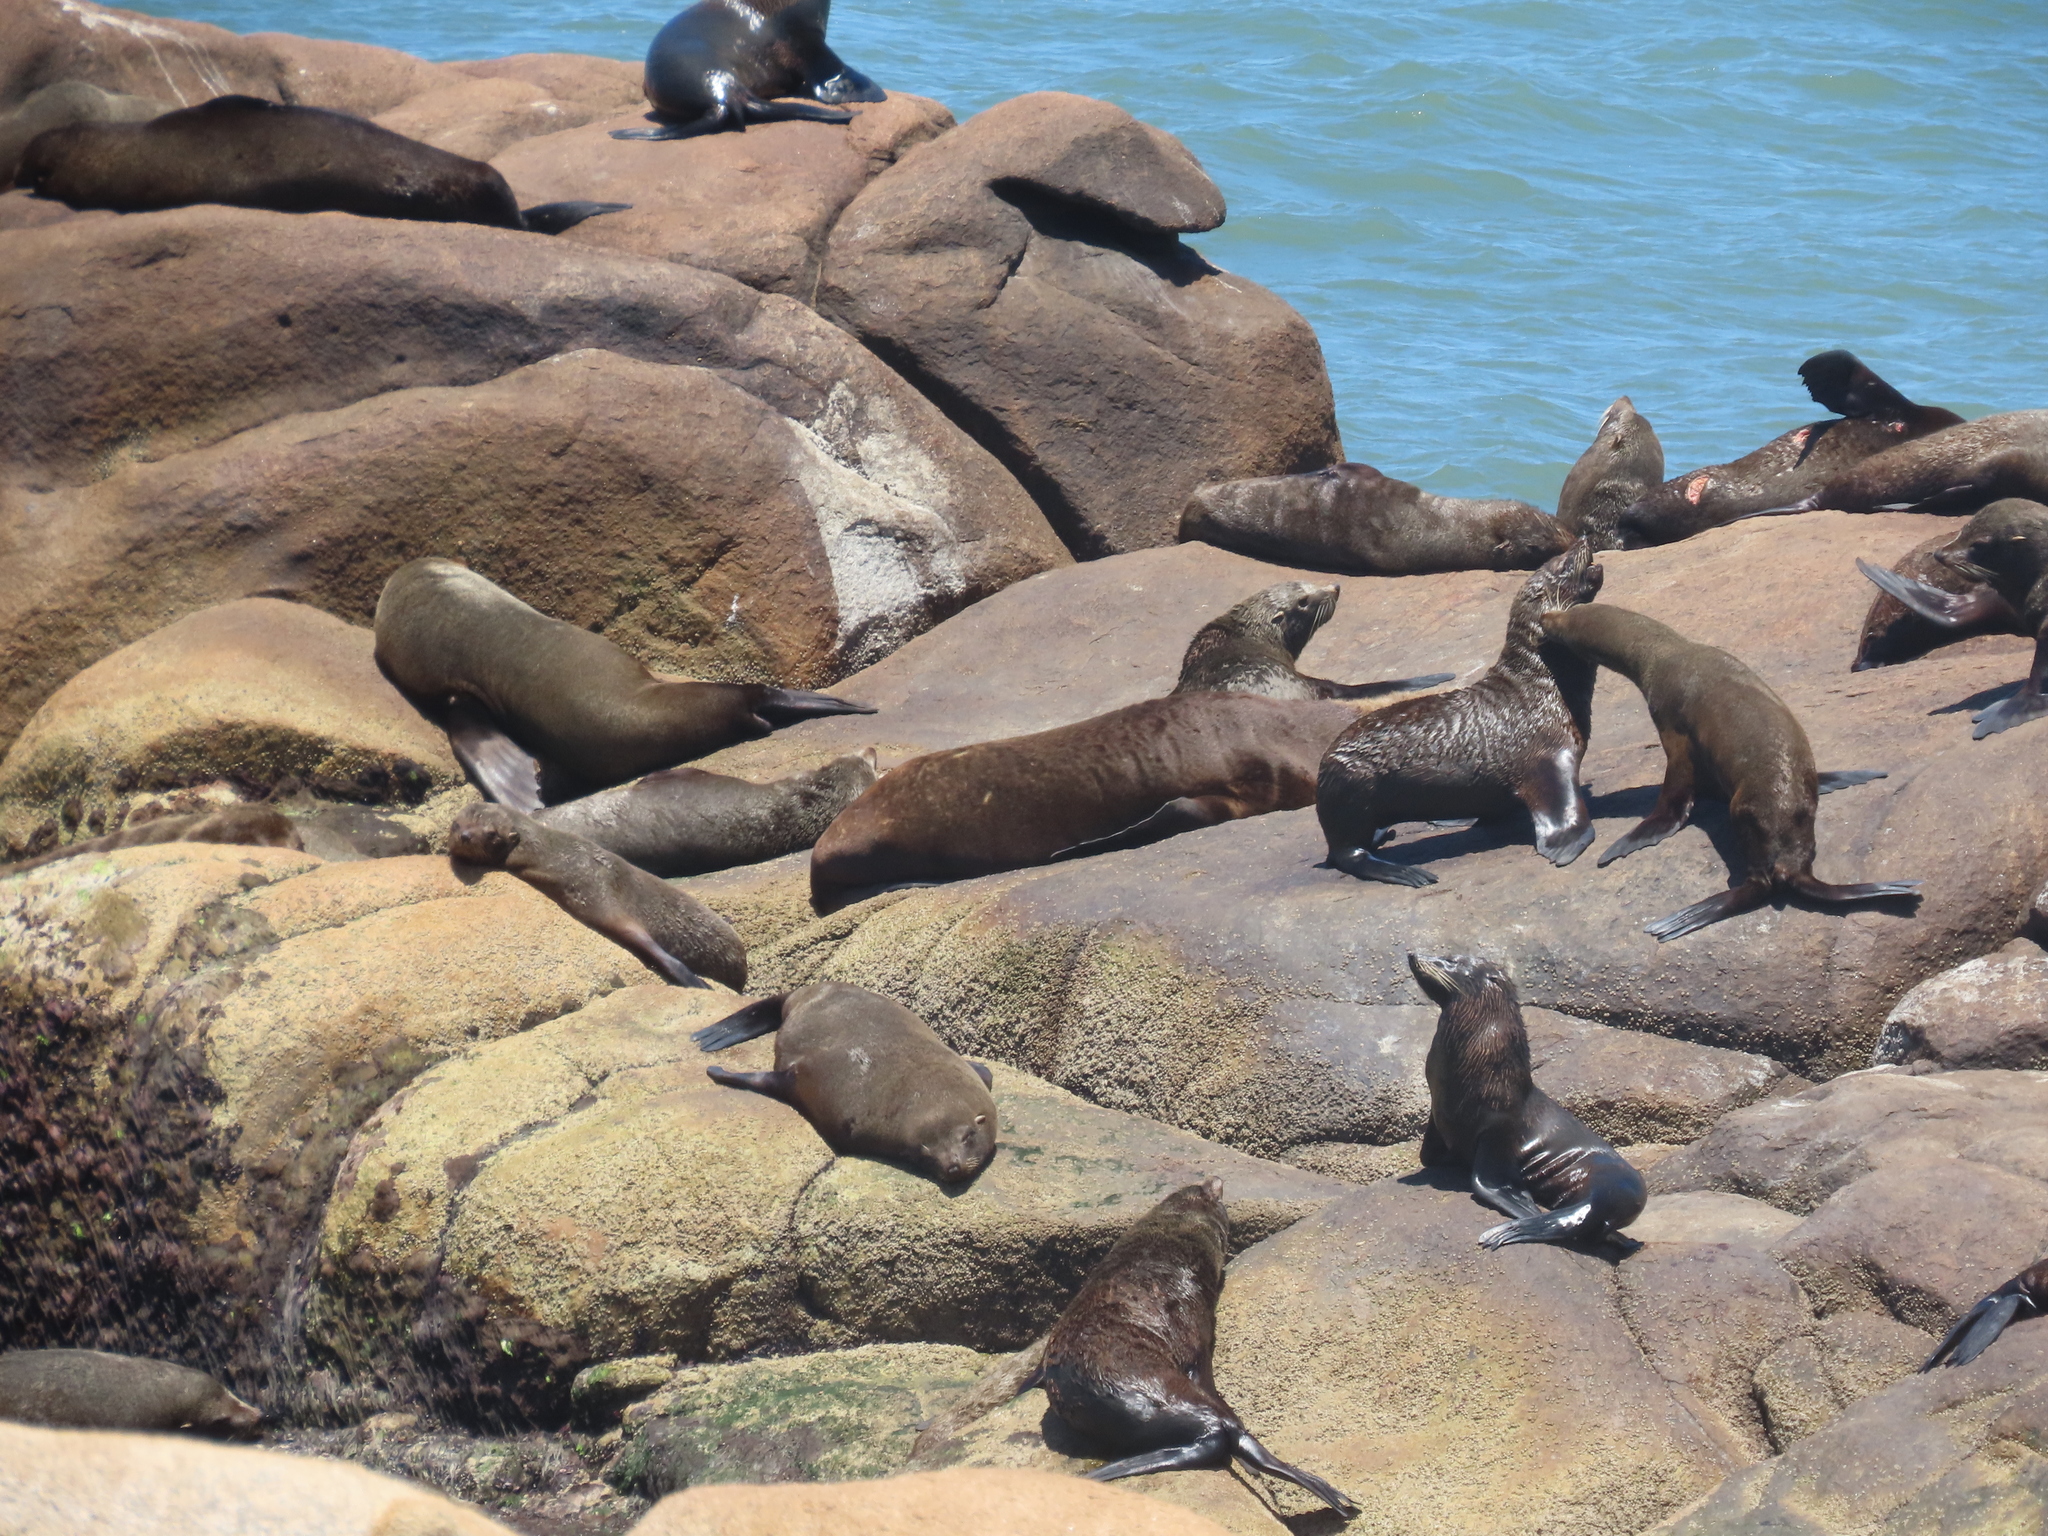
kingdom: Animalia
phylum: Chordata
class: Mammalia
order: Carnivora
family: Otariidae
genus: Arctocephalus
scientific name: Arctocephalus australis
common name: South american fur seal
